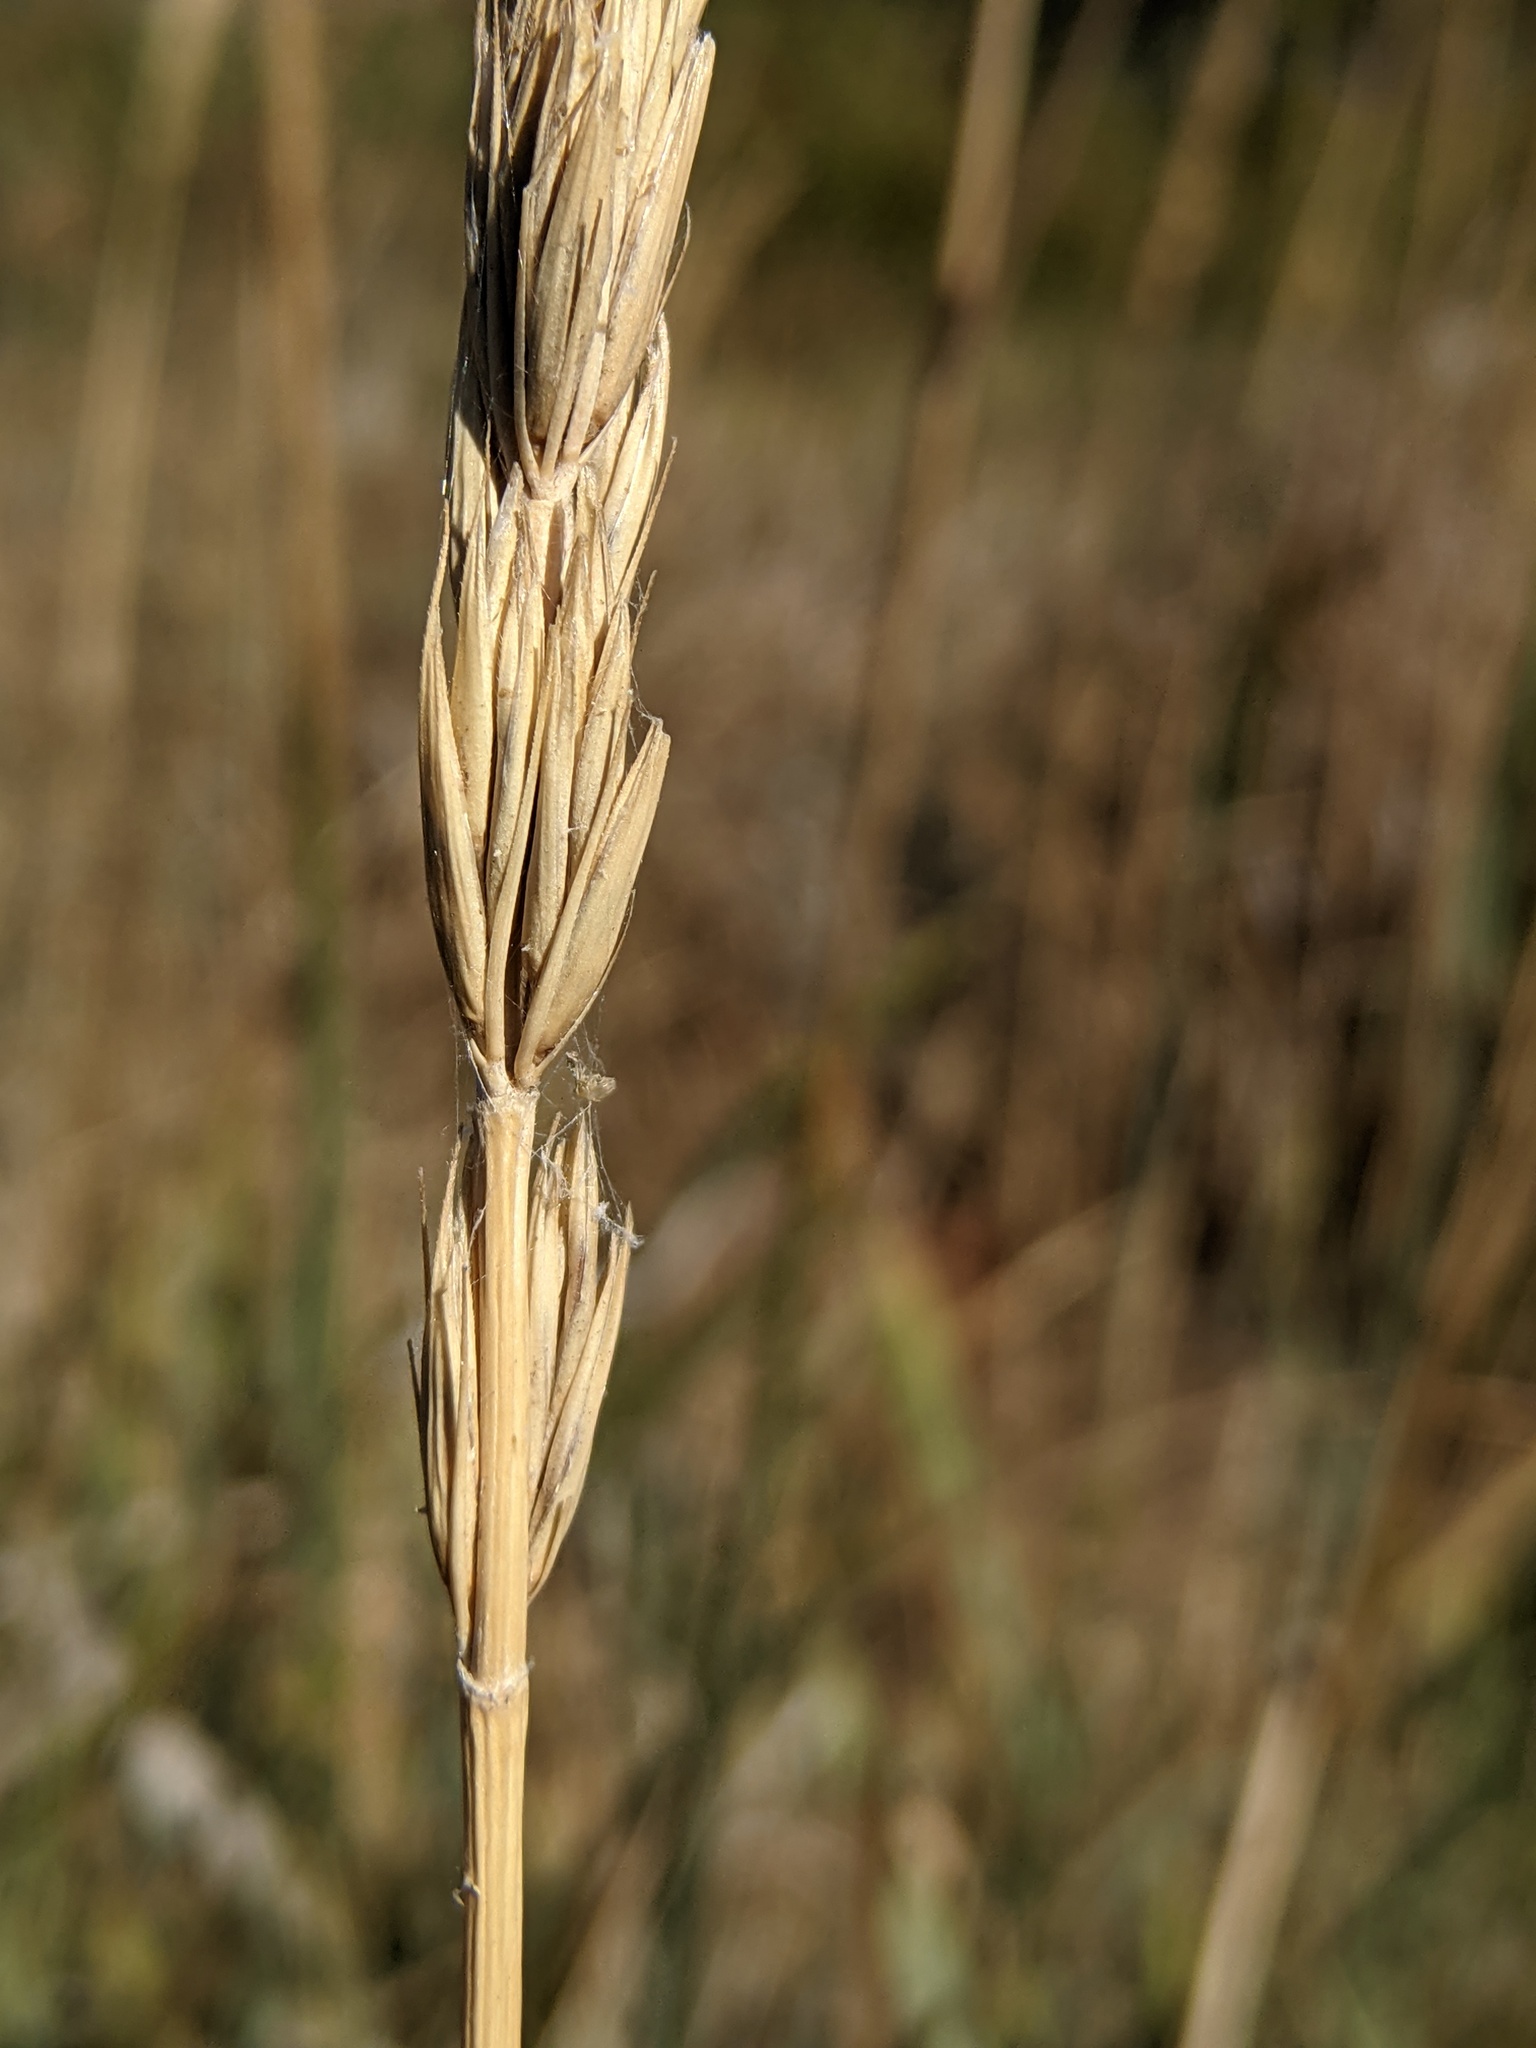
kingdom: Plantae
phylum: Tracheophyta
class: Liliopsida
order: Poales
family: Poaceae
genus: Leymus
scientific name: Leymus cinereus
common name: Basin wild rye
